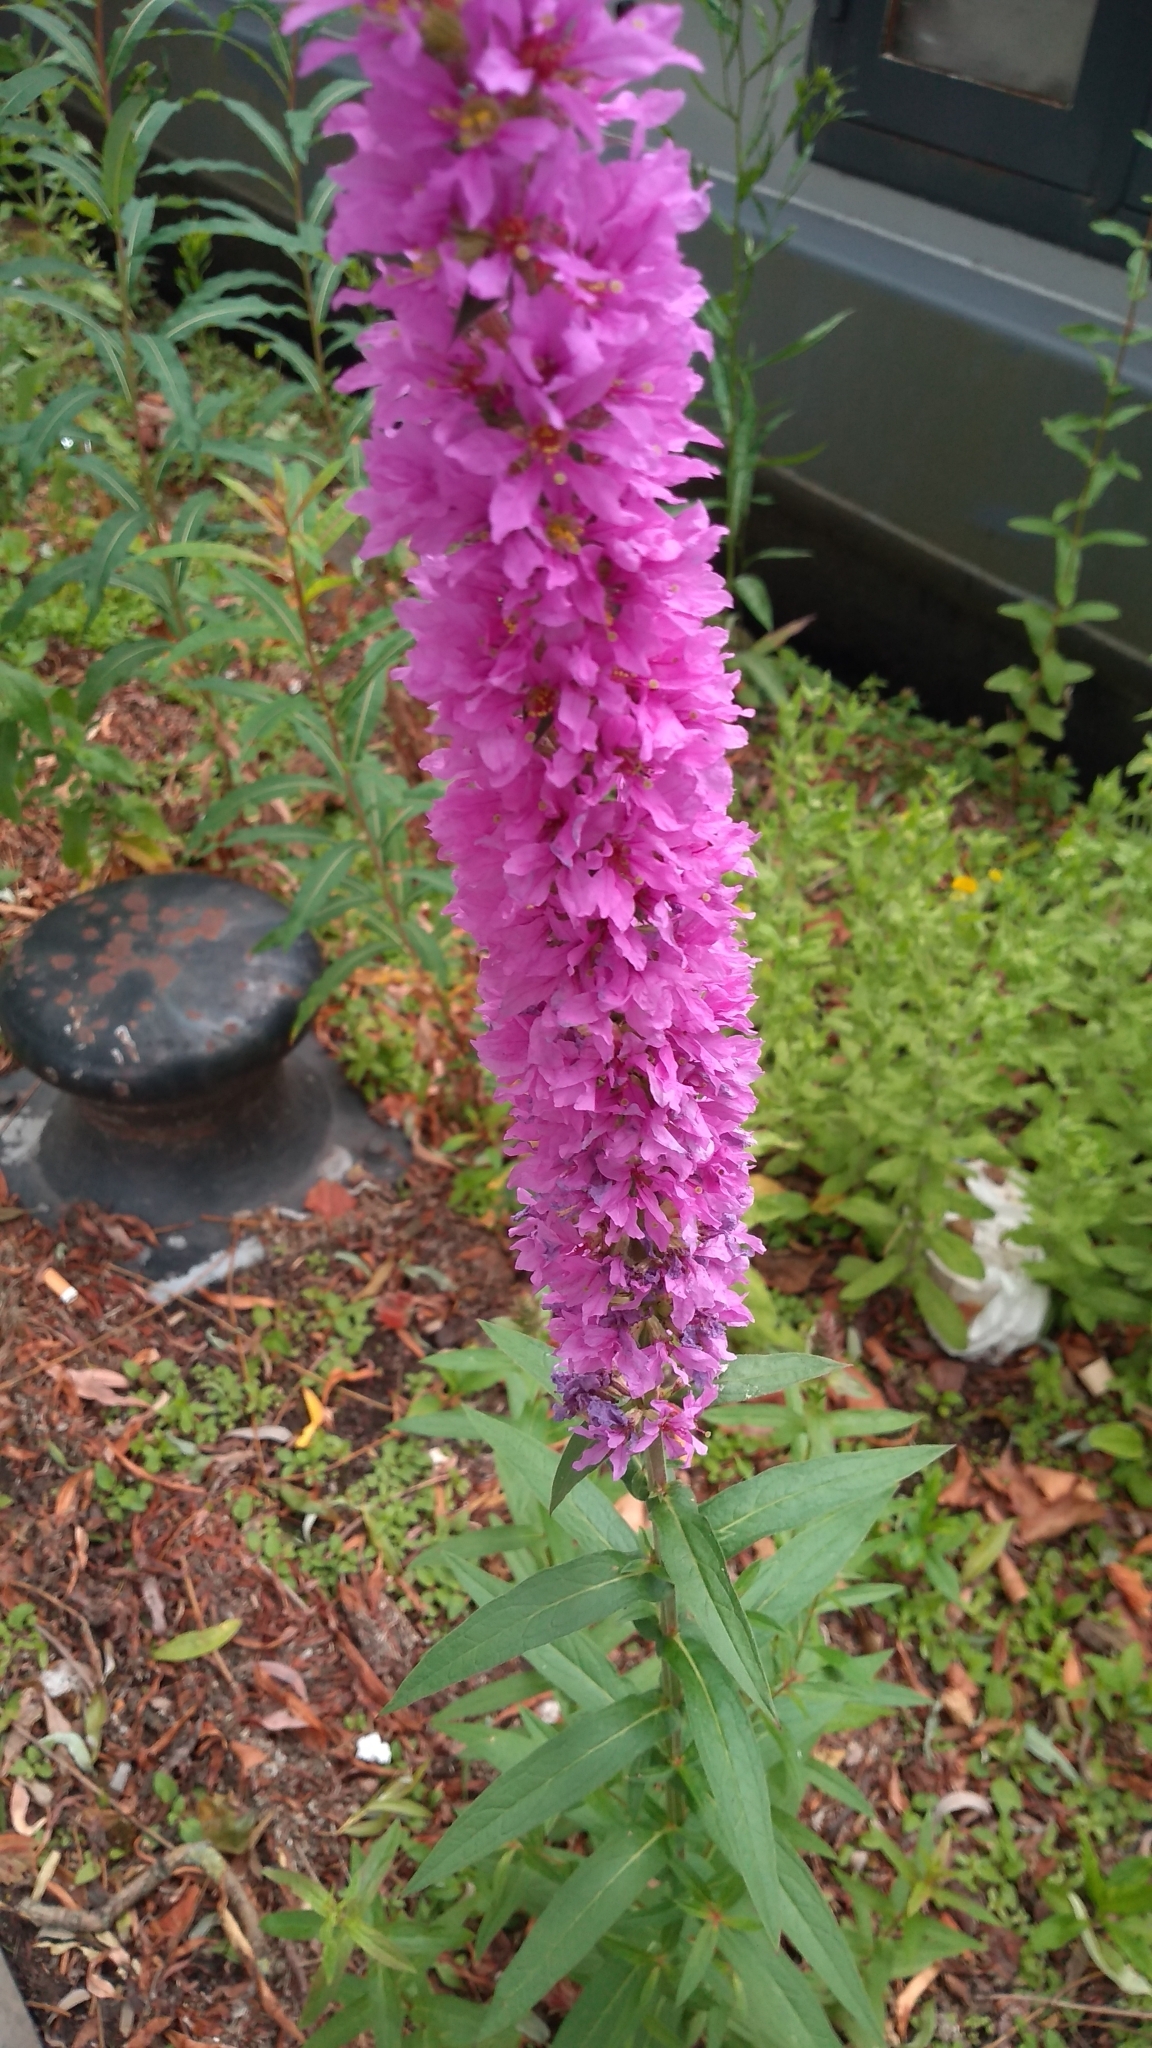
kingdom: Plantae
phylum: Tracheophyta
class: Magnoliopsida
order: Myrtales
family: Lythraceae
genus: Lythrum
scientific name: Lythrum salicaria
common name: Purple loosestrife
